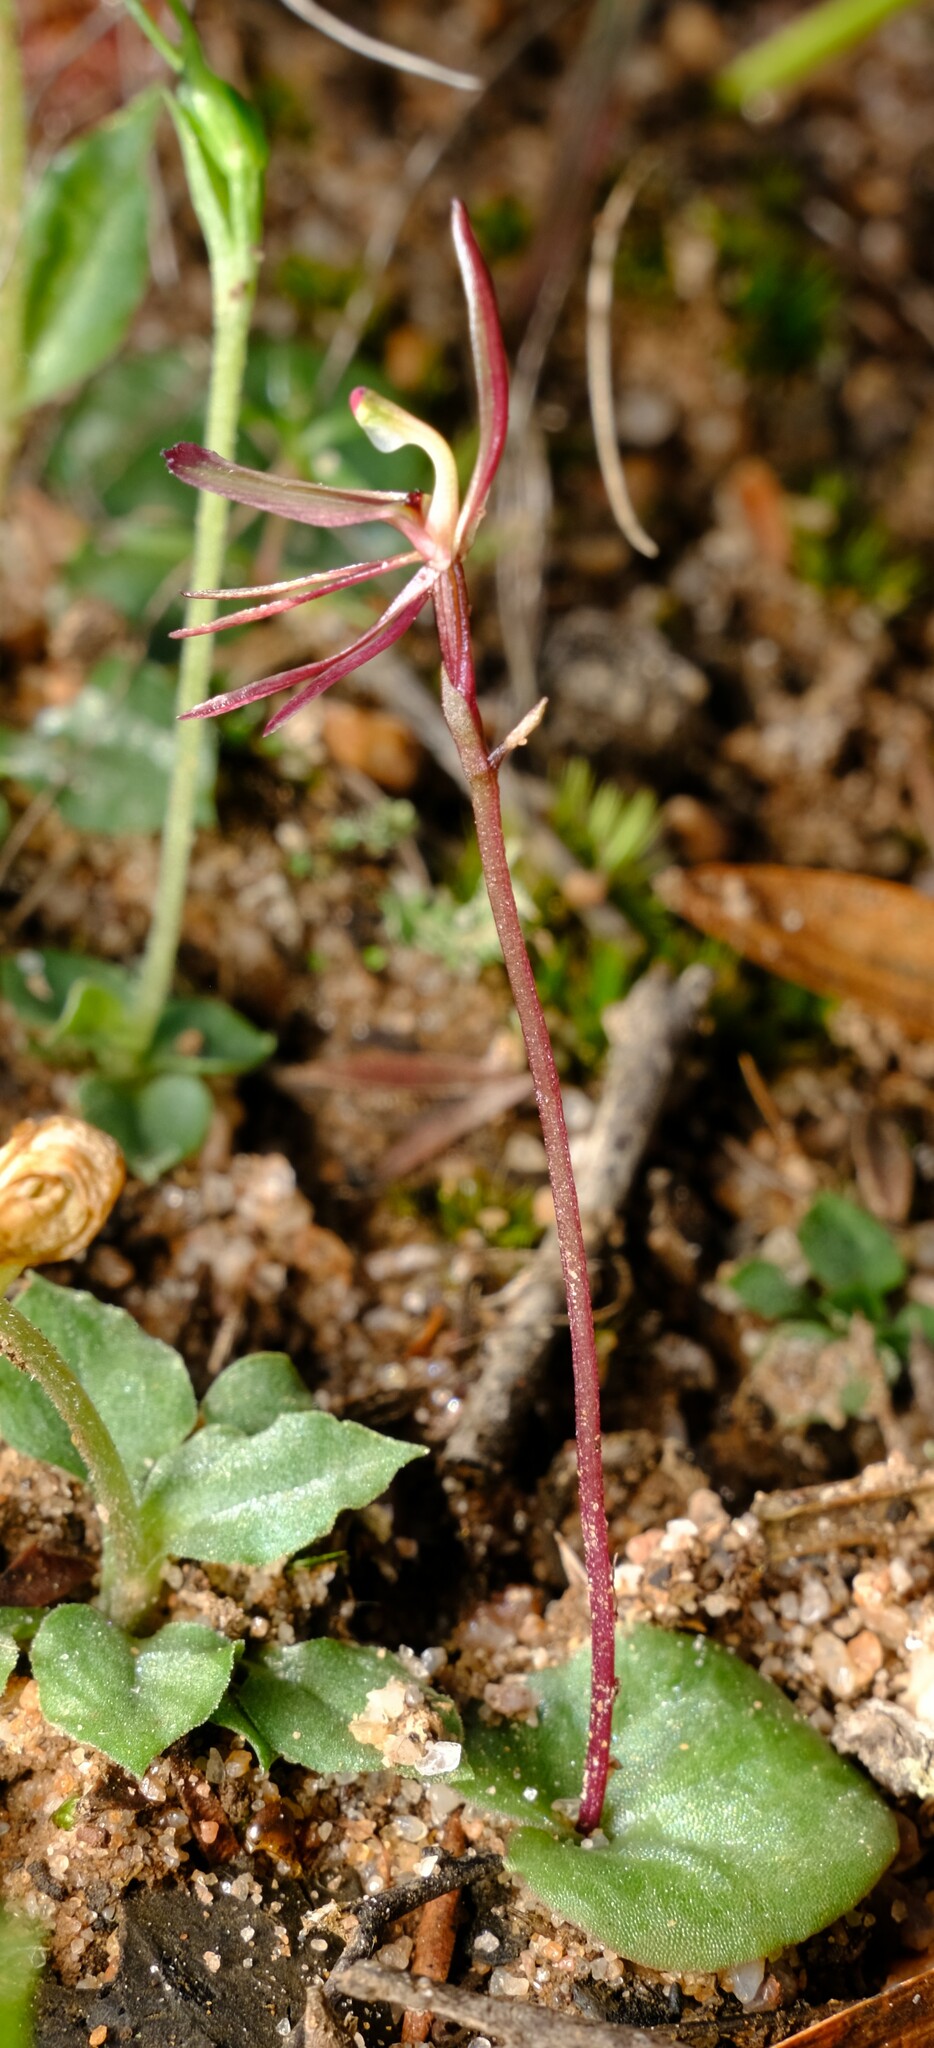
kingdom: Plantae
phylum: Tracheophyta
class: Liliopsida
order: Asparagales
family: Orchidaceae
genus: Cyrtostylis
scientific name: Cyrtostylis reniformis
